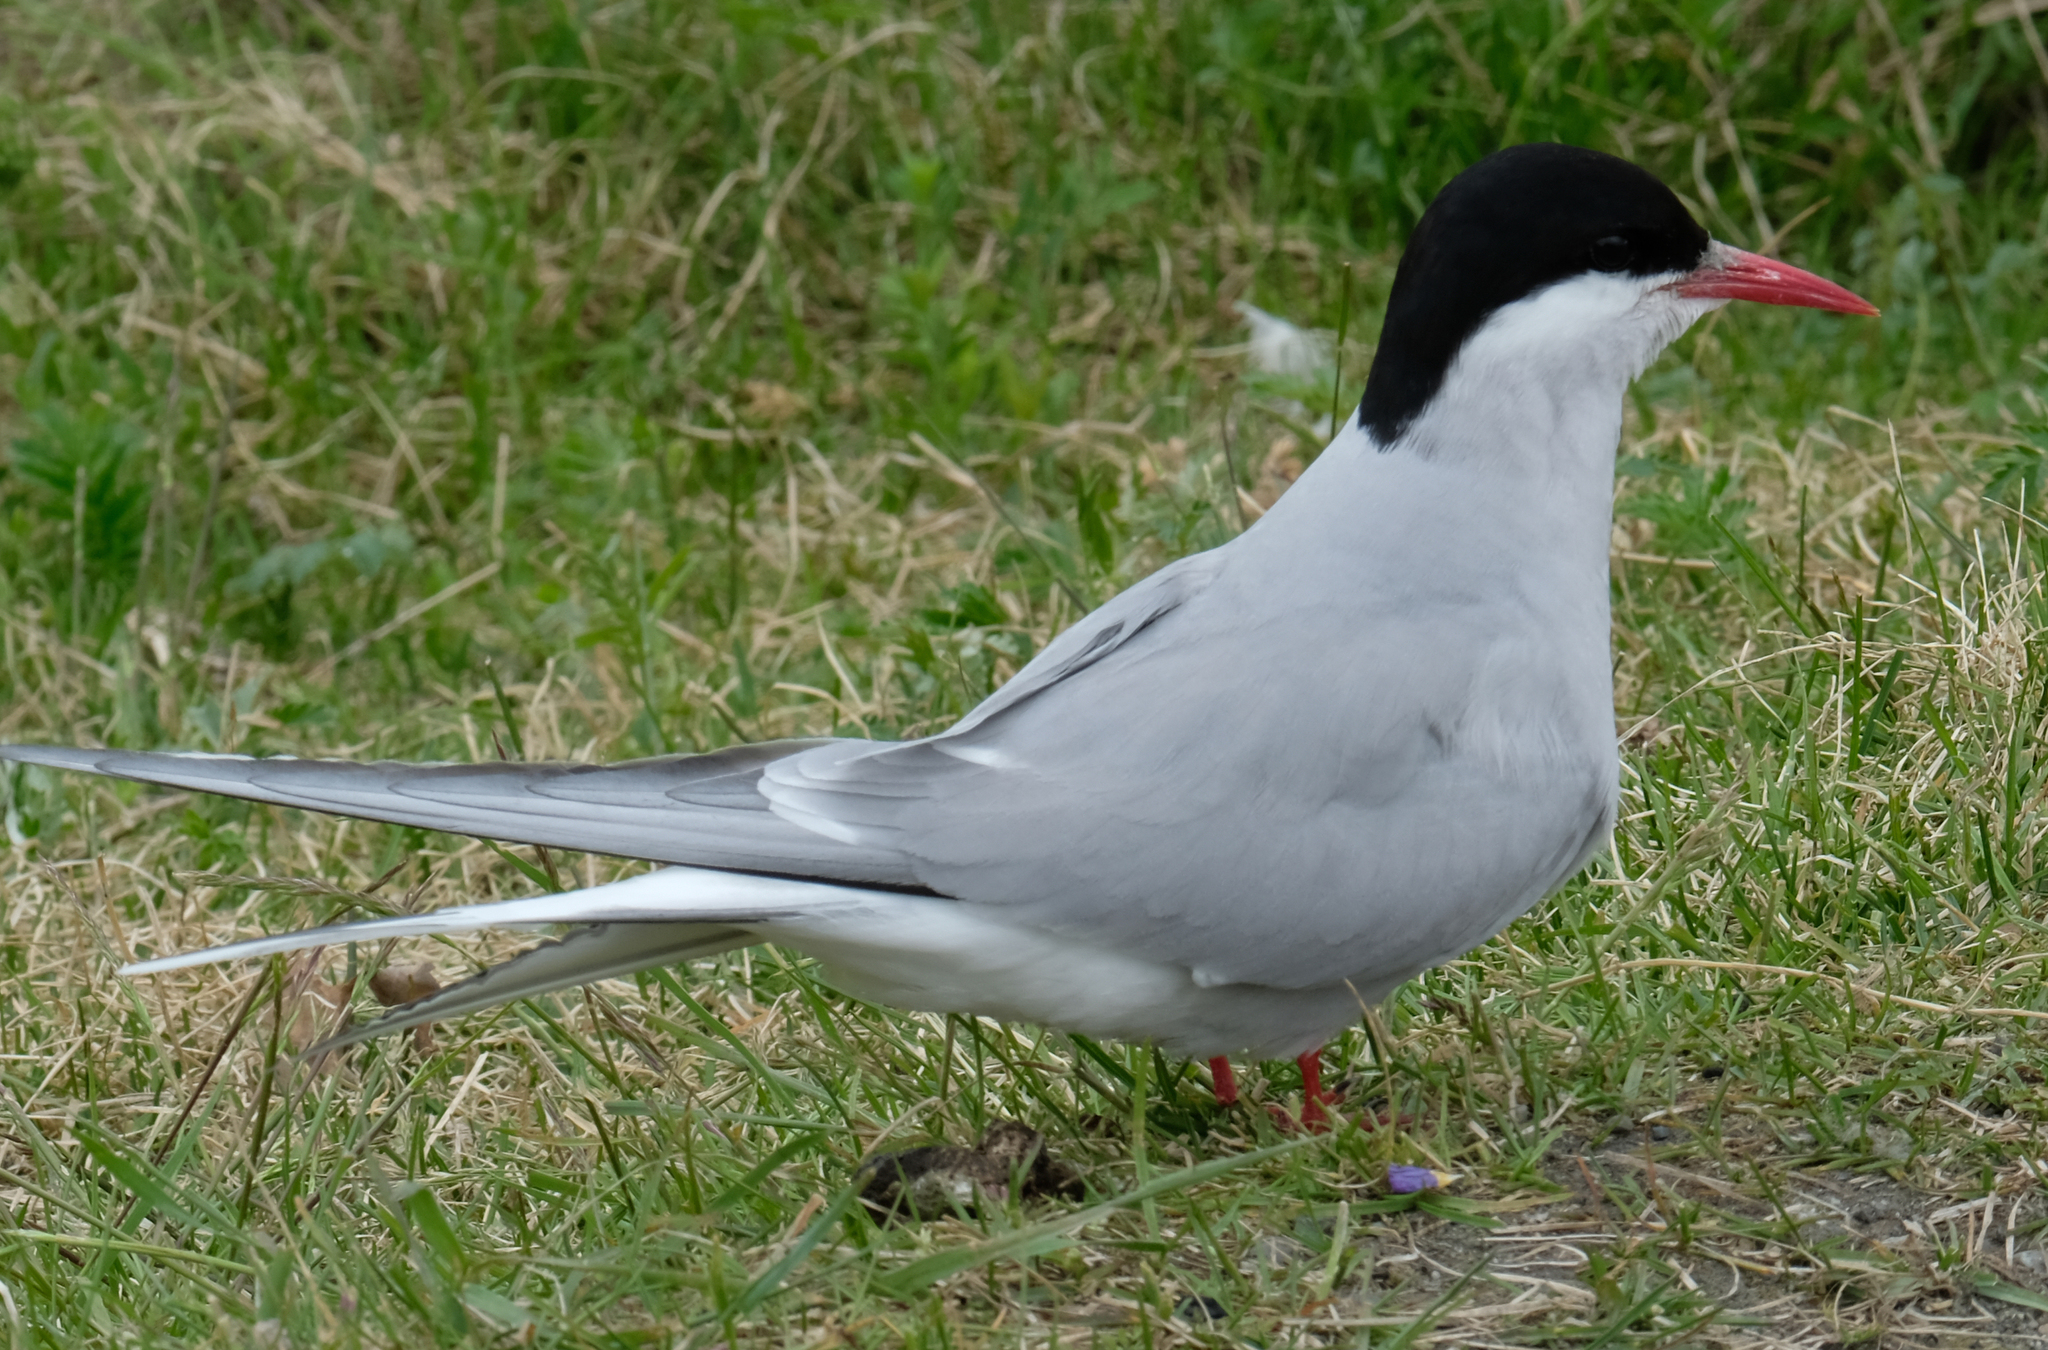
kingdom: Animalia
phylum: Chordata
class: Aves
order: Charadriiformes
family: Laridae
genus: Sterna
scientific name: Sterna paradisaea
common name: Arctic tern
